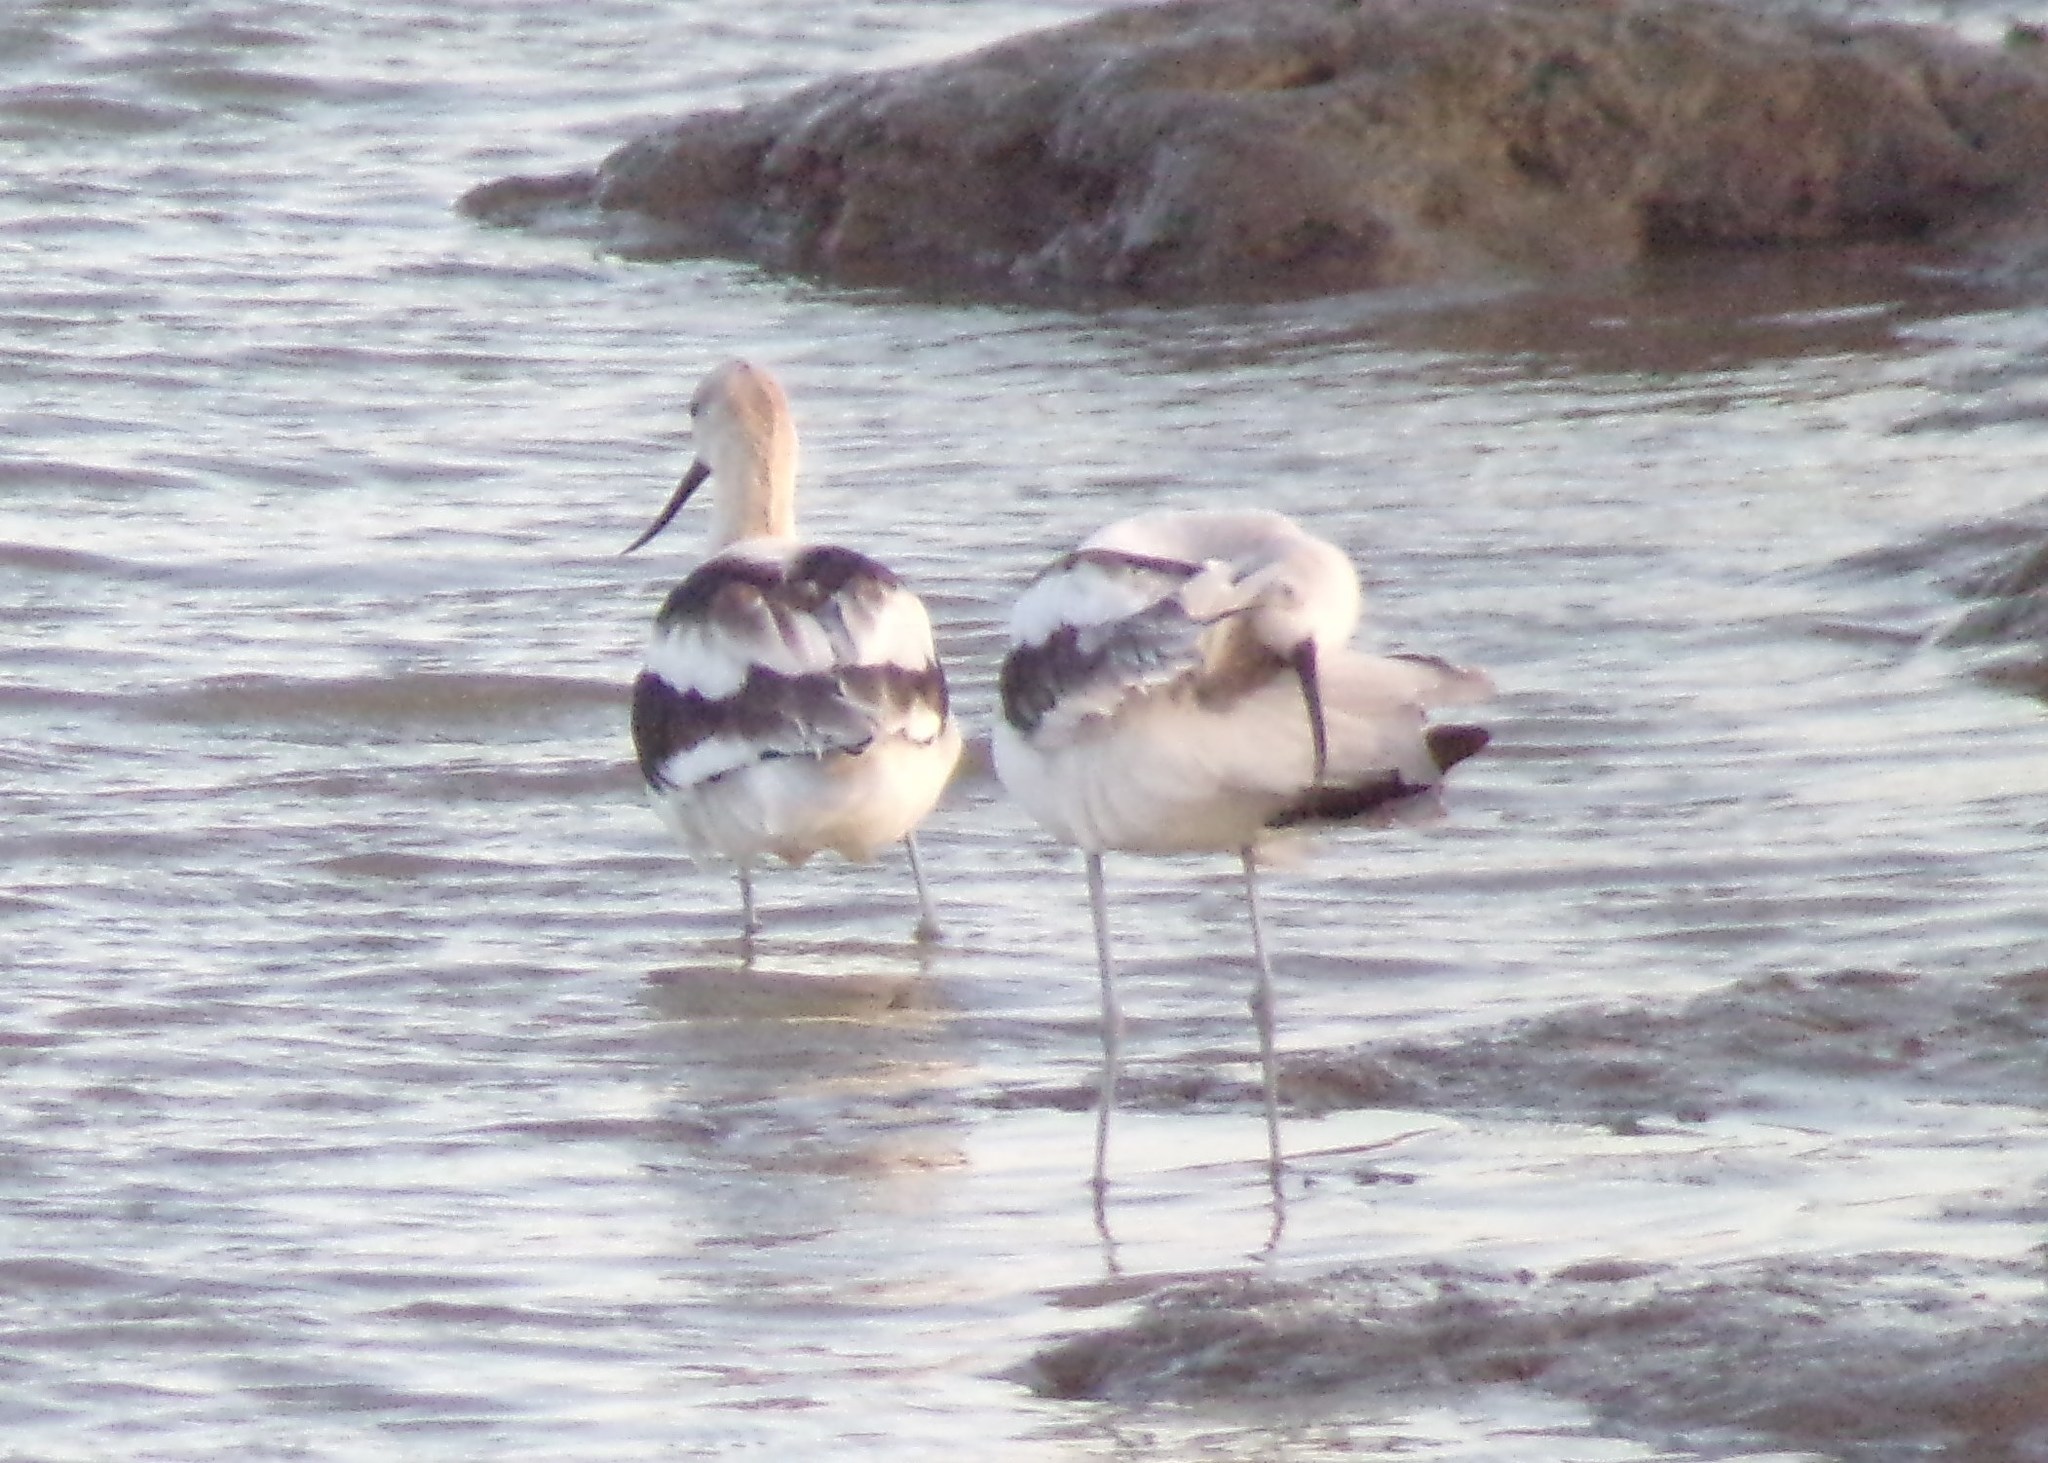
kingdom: Animalia
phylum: Chordata
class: Aves
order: Charadriiformes
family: Recurvirostridae
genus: Recurvirostra
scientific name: Recurvirostra americana
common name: American avocet
